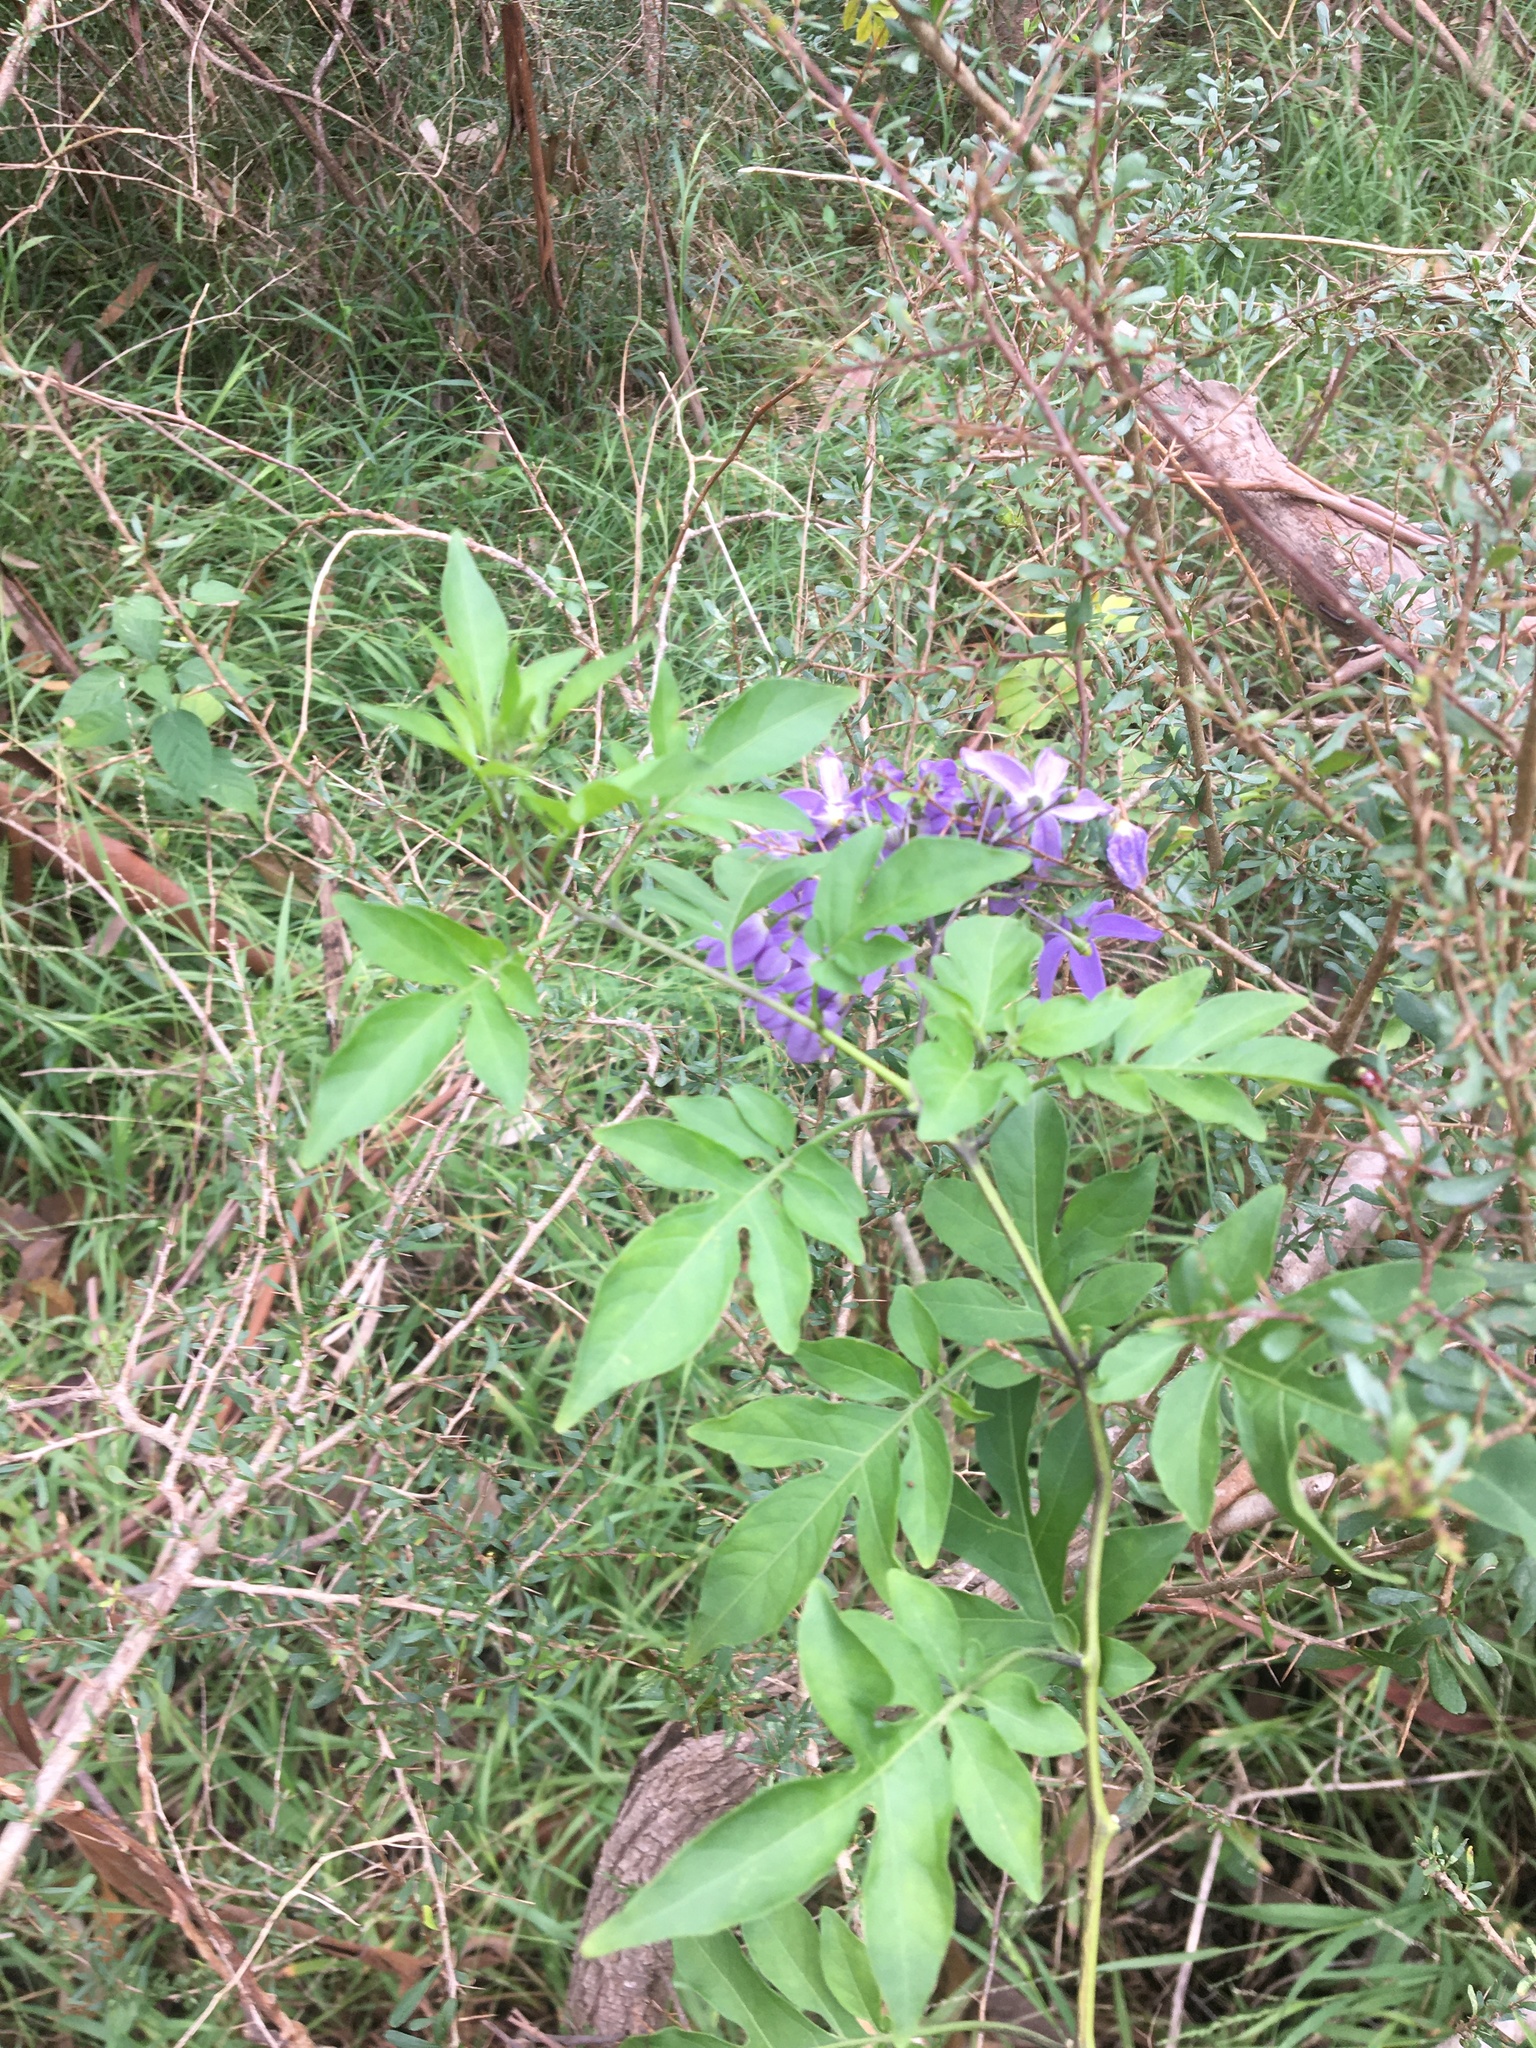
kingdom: Plantae
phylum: Tracheophyta
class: Magnoliopsida
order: Solanales
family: Solanaceae
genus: Solanum
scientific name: Solanum seaforthianum
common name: Brazilian nightshade
